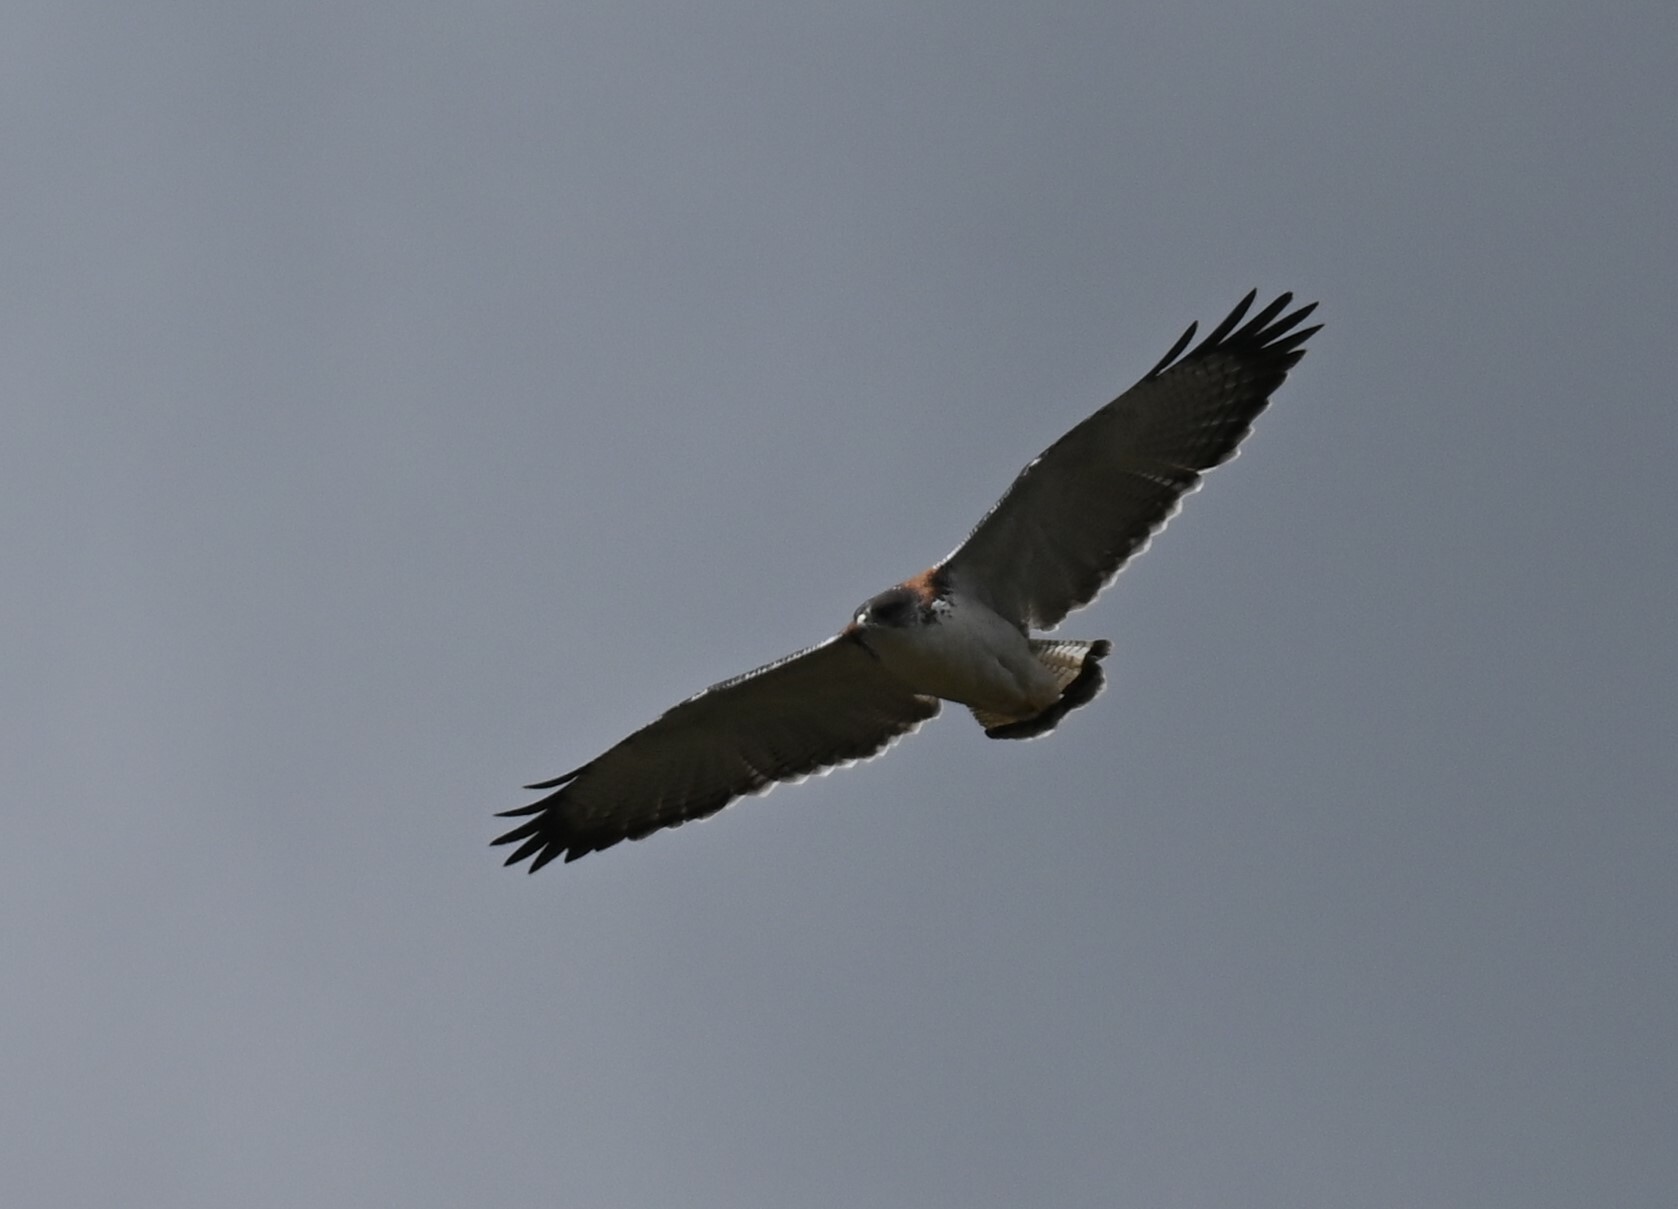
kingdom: Animalia
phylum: Chordata
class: Aves
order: Accipitriformes
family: Accipitridae
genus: Buteo
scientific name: Buteo polyosoma
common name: Variable hawk
